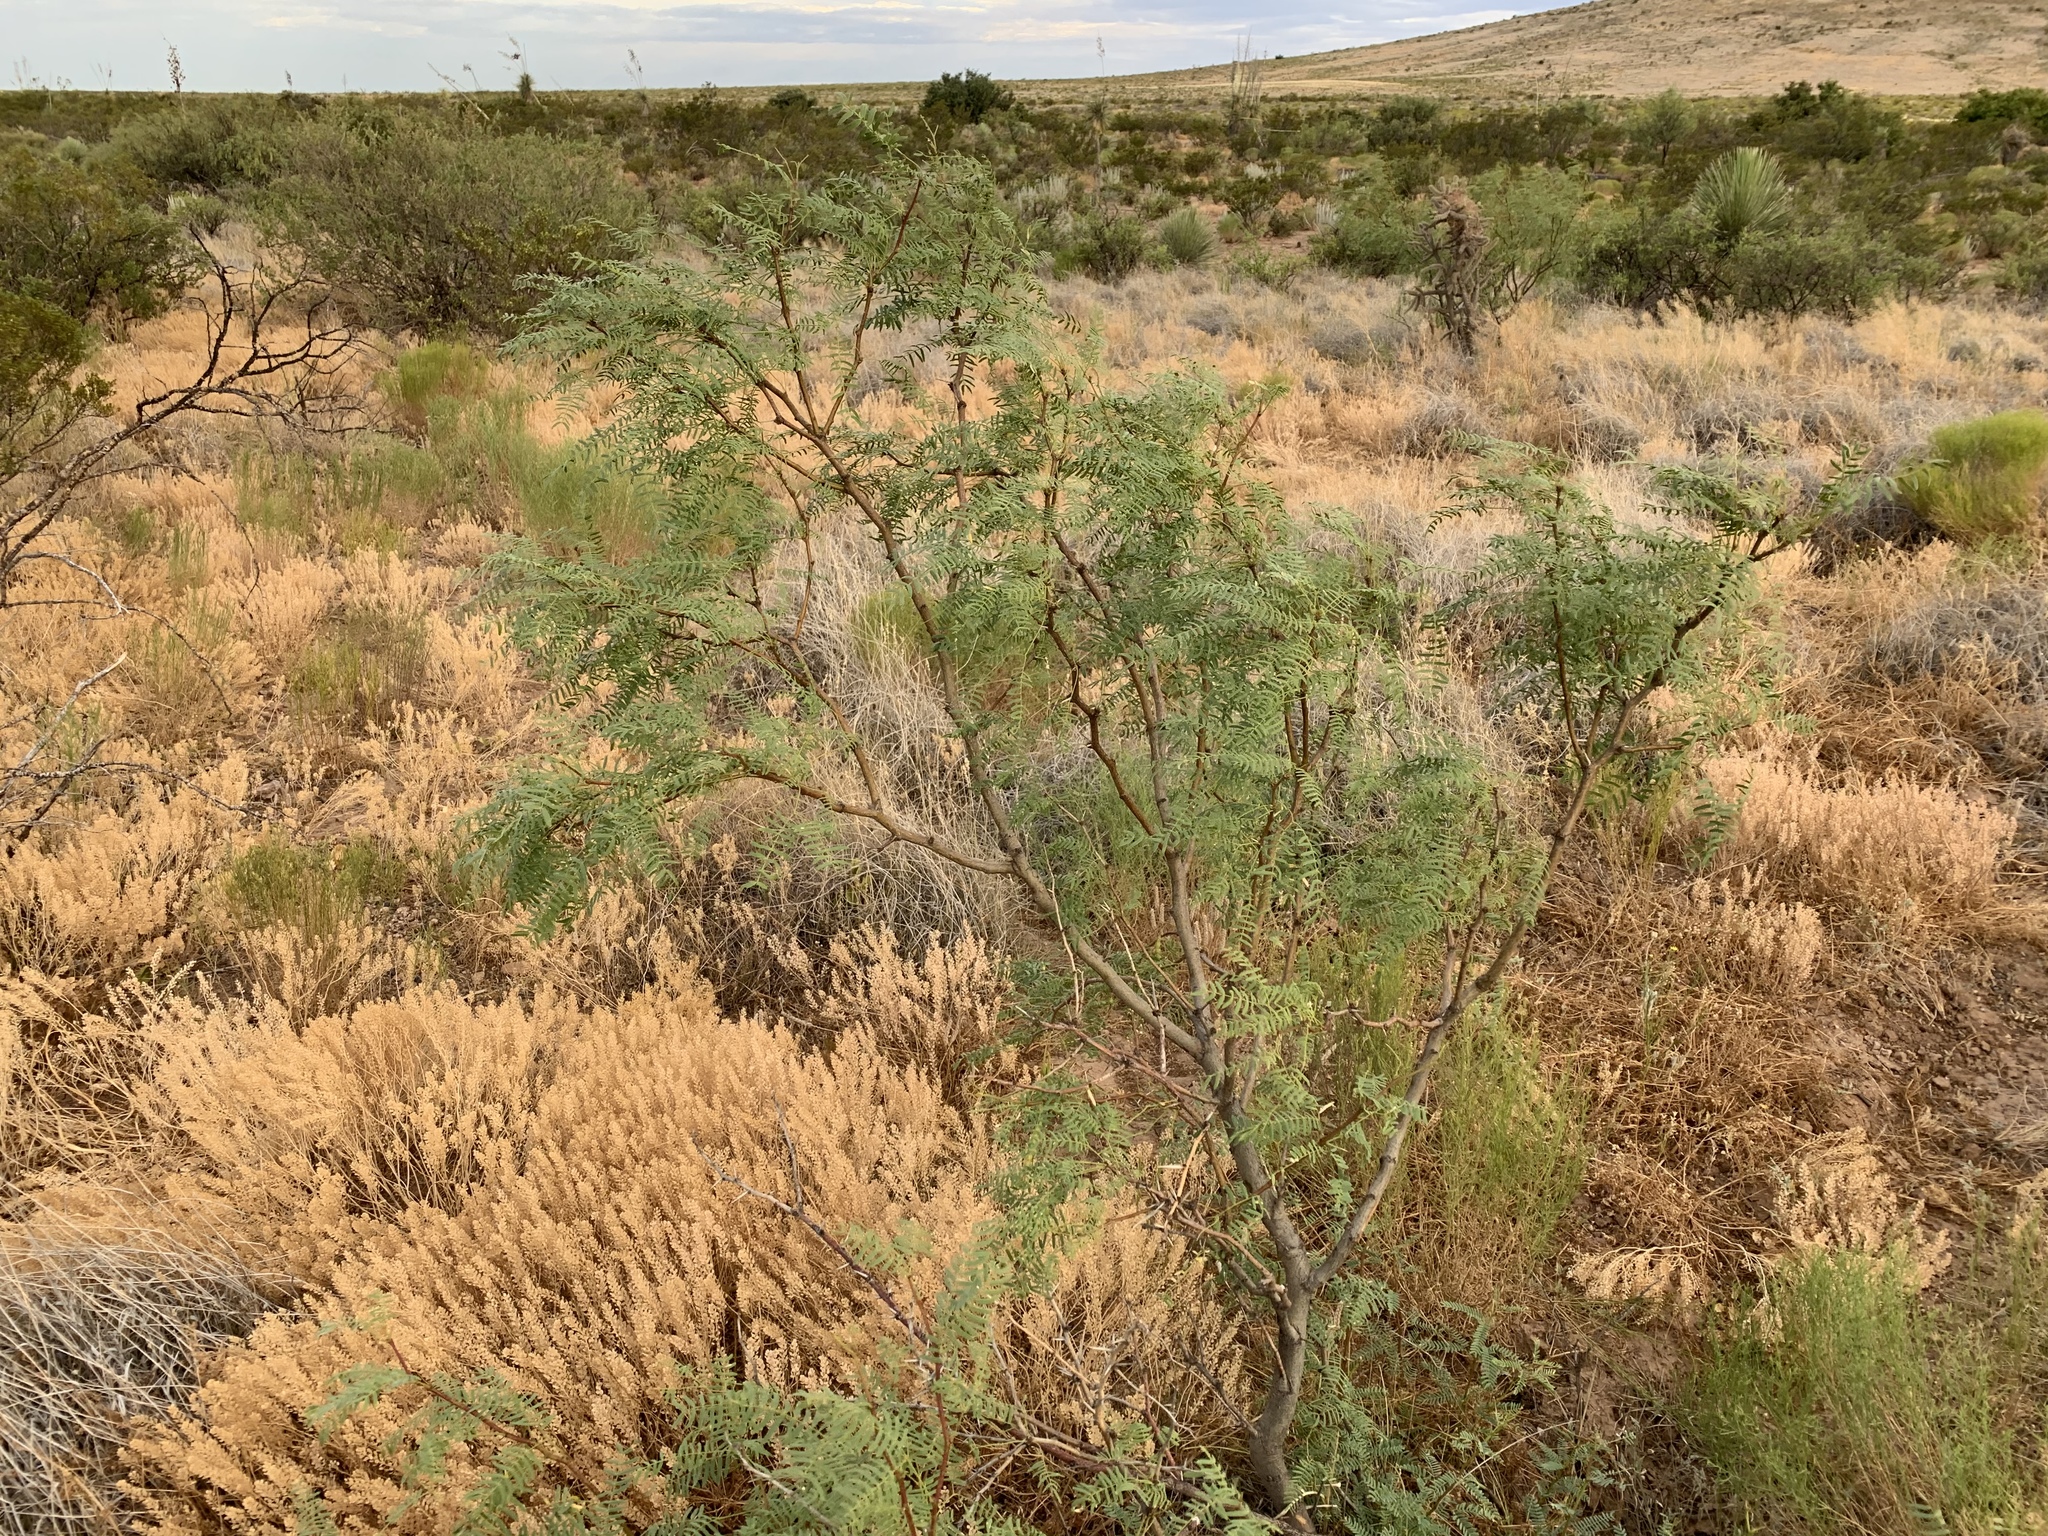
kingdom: Plantae
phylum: Tracheophyta
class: Magnoliopsida
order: Fabales
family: Fabaceae
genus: Prosopis
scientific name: Prosopis pubescens
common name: Screw-bean
